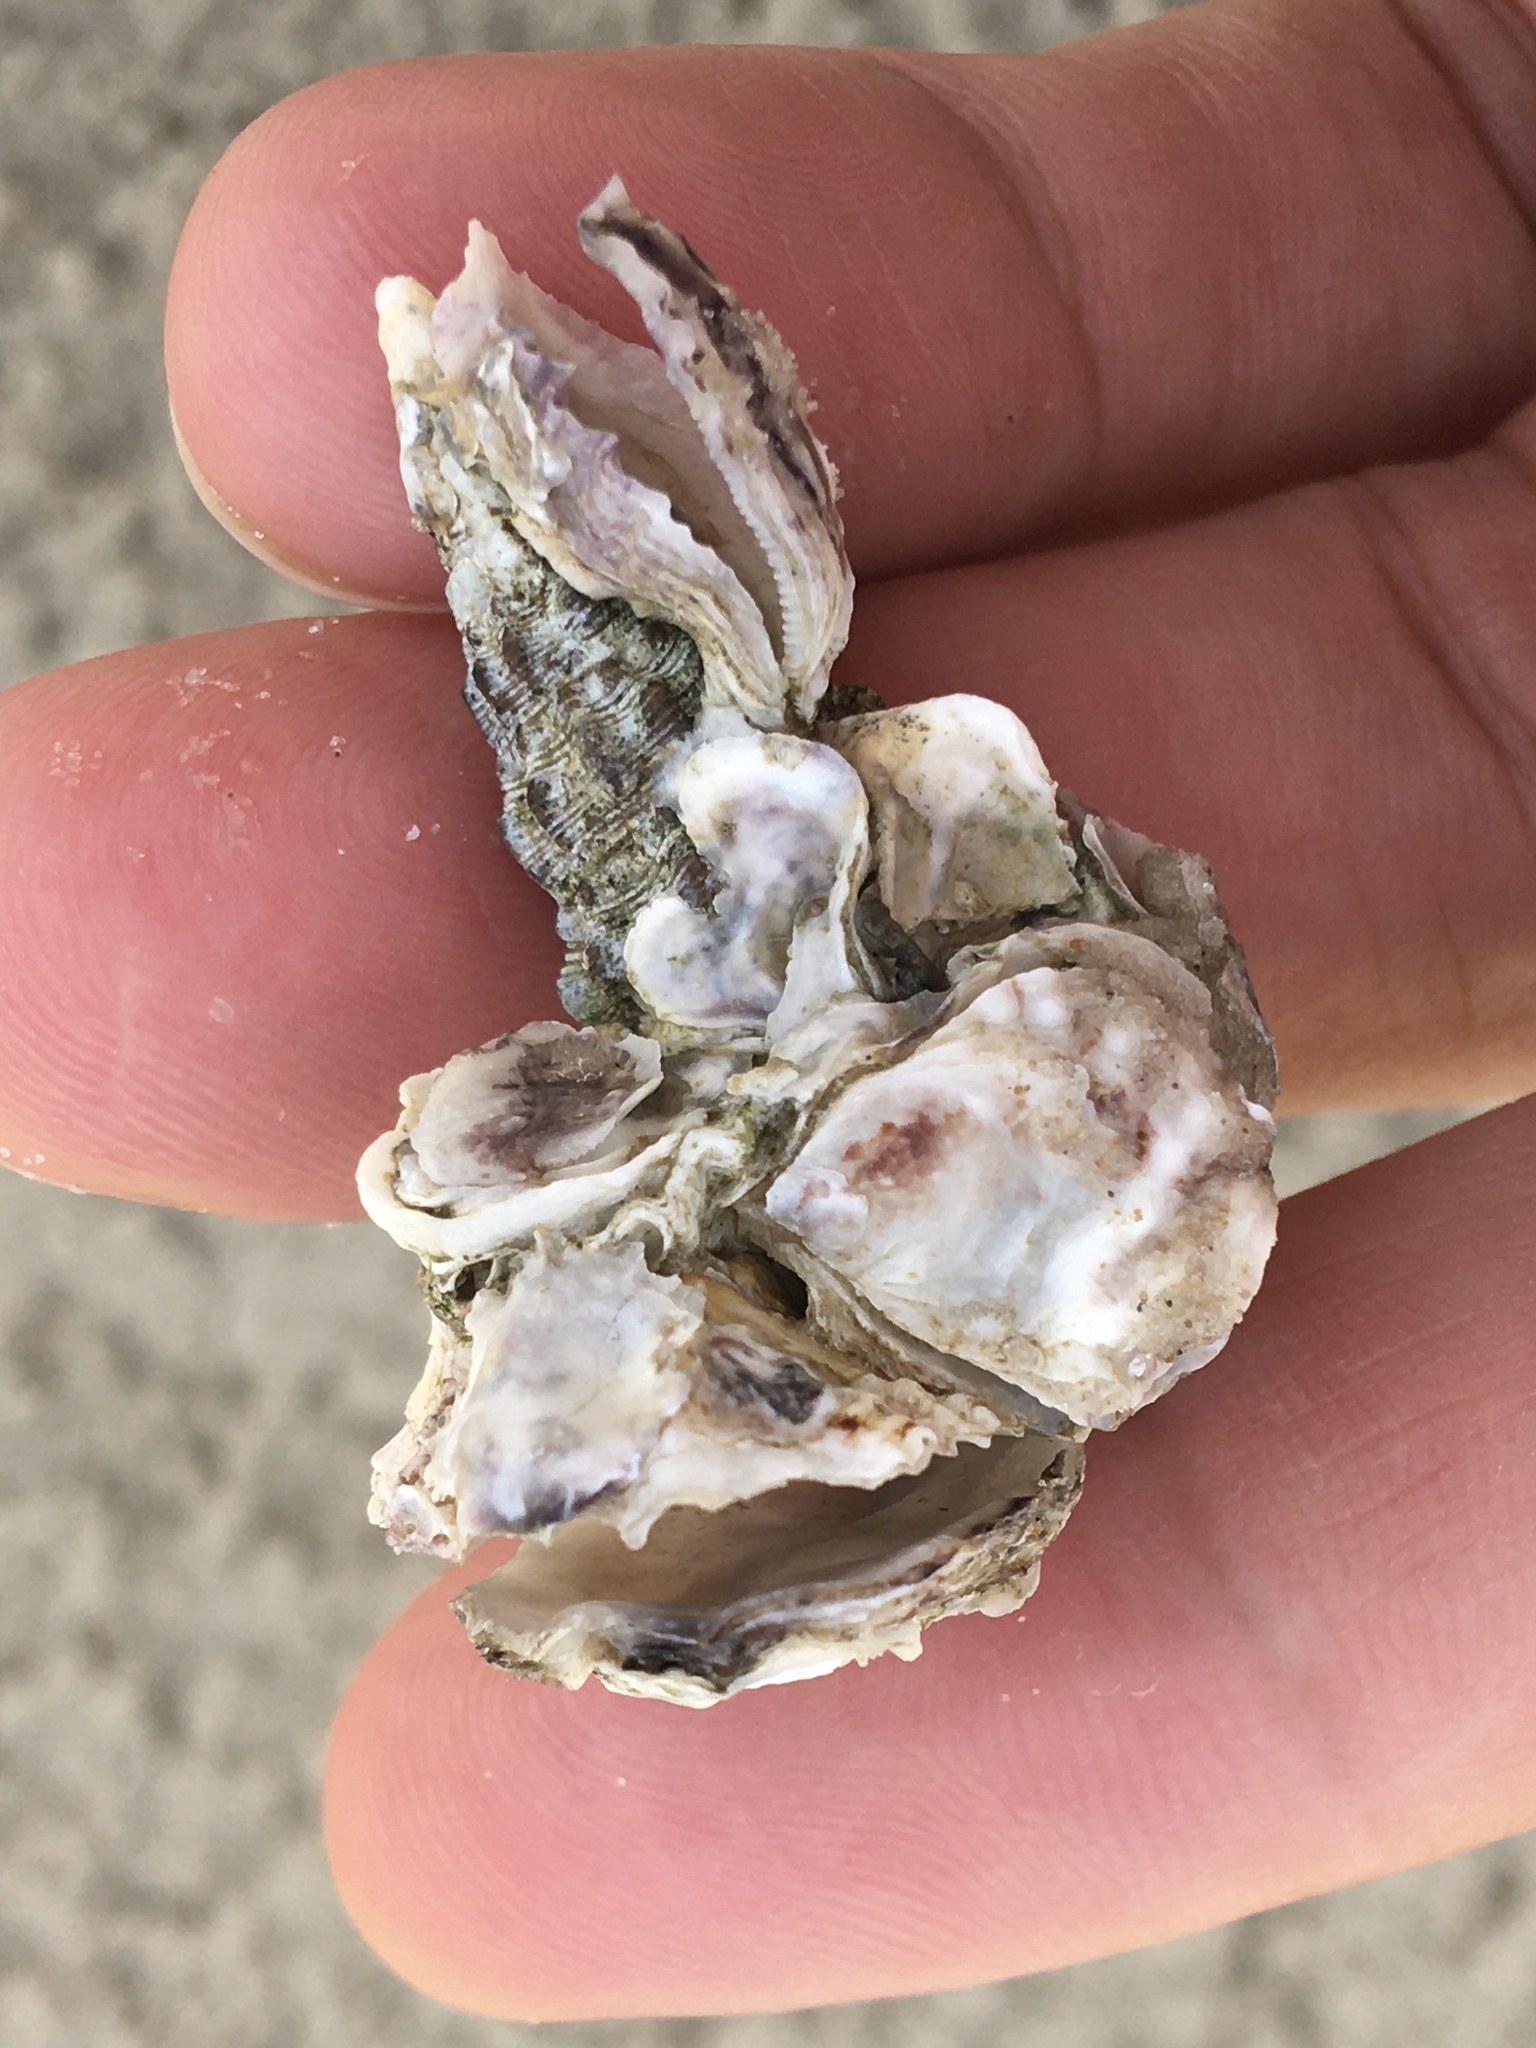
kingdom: Animalia
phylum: Mollusca
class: Gastropoda
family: Cerithiidae
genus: Cerithium
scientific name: Cerithium atratum
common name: Dark cerith
